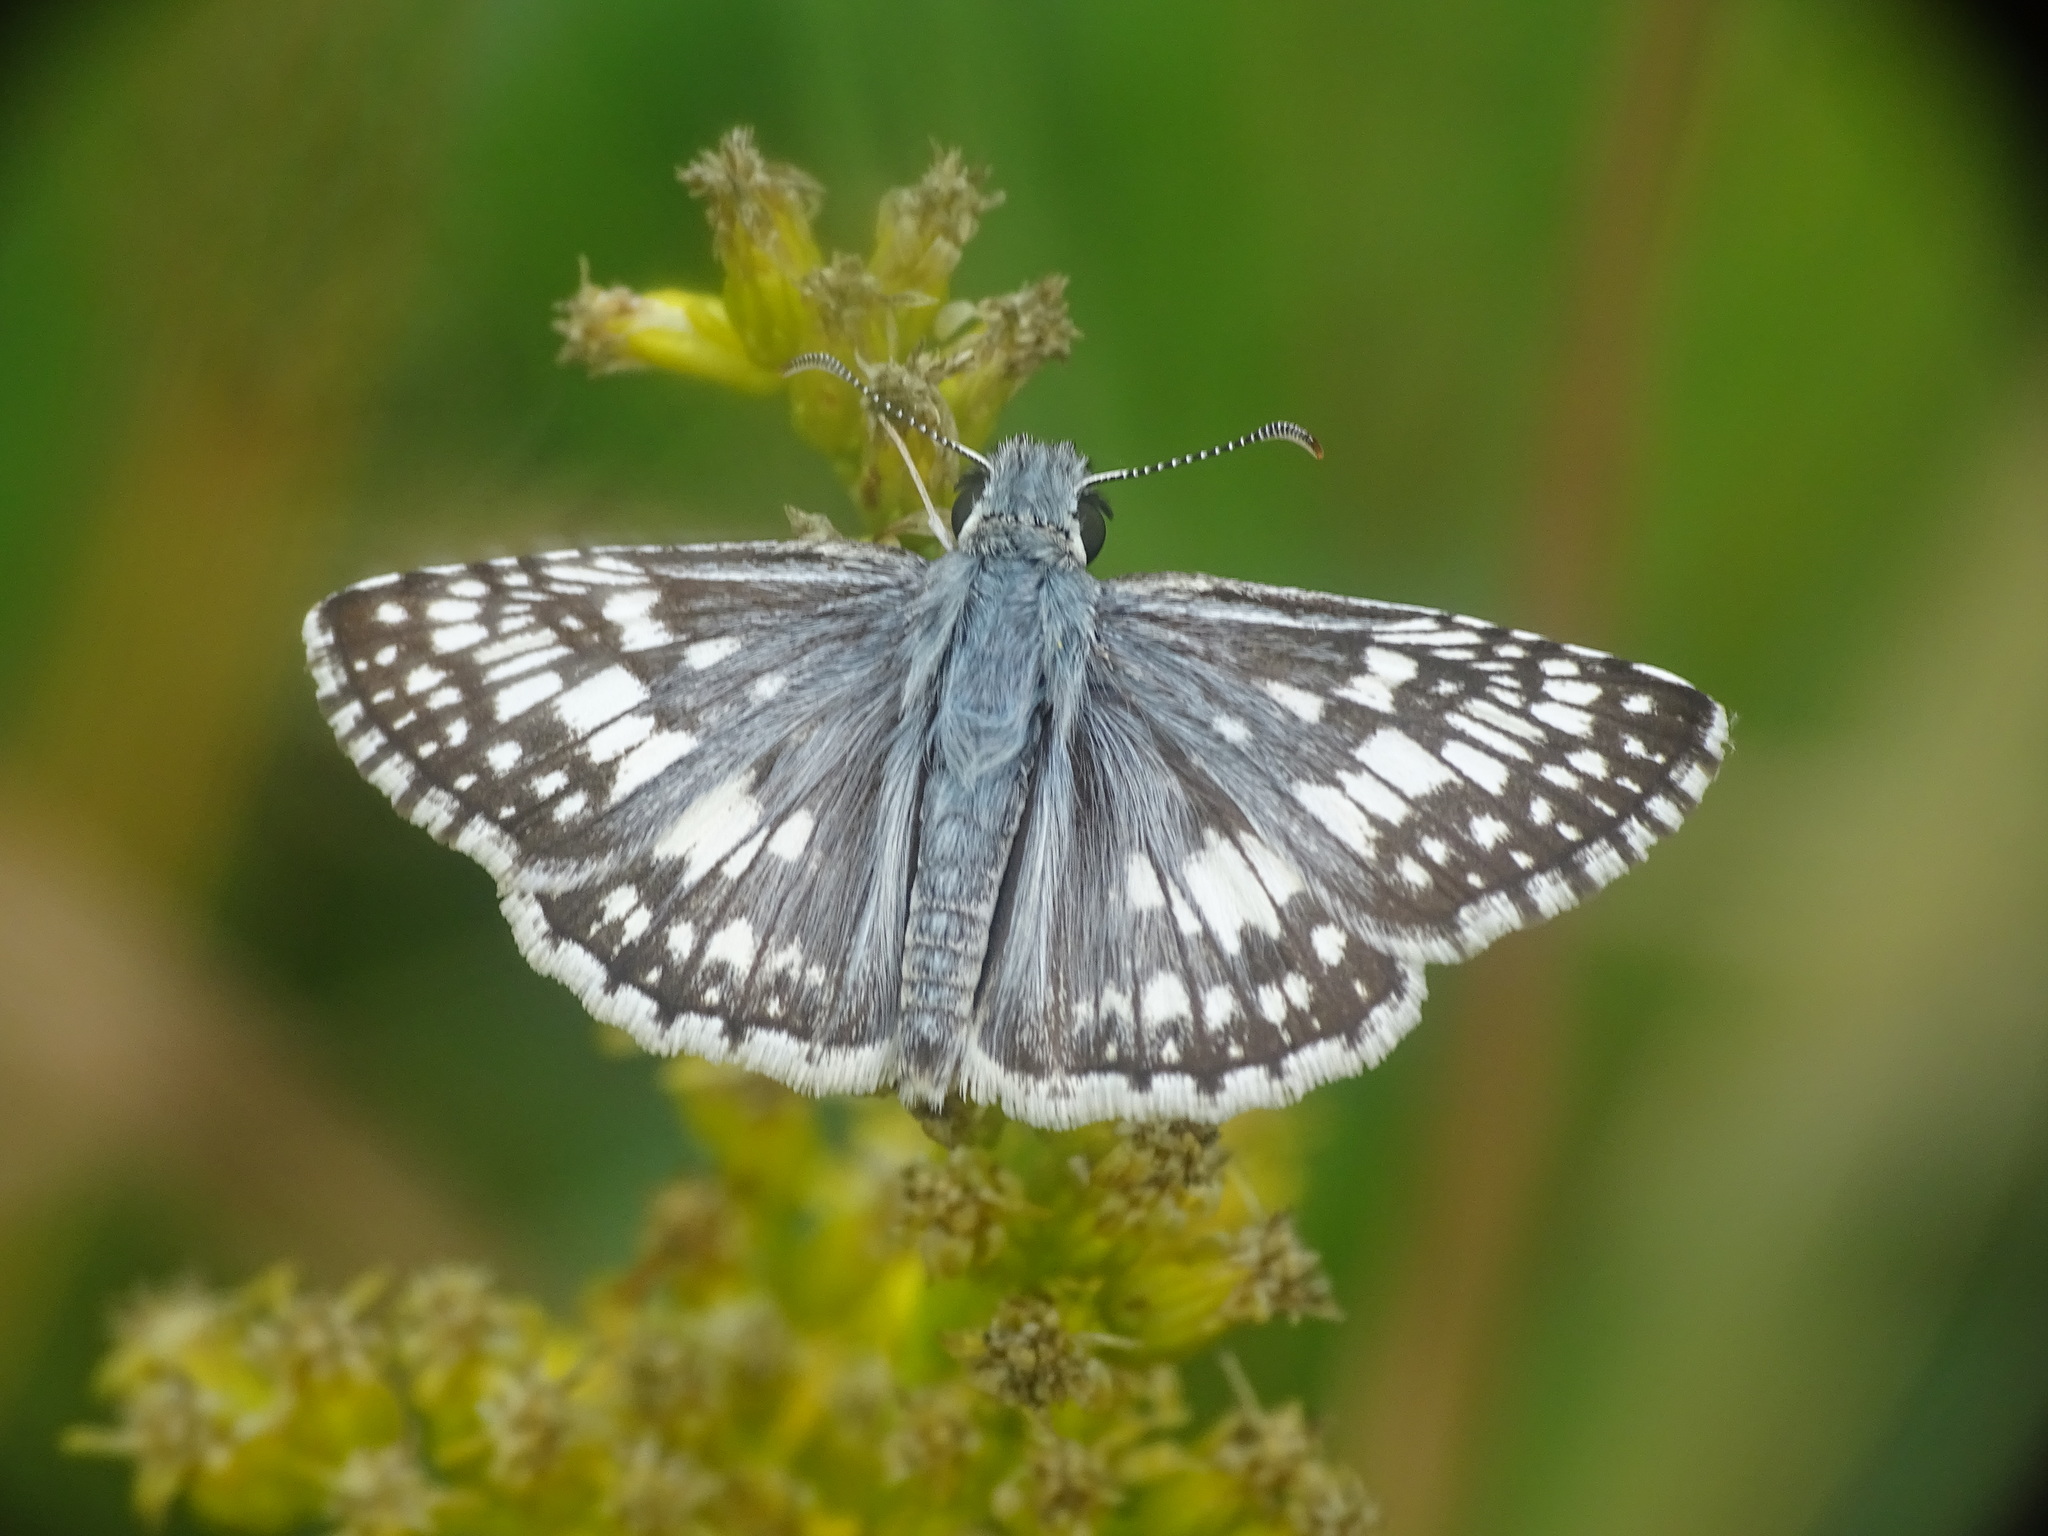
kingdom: Animalia
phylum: Arthropoda
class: Insecta
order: Lepidoptera
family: Hesperiidae
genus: Burnsius
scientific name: Burnsius communis
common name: Common checkered-skipper
